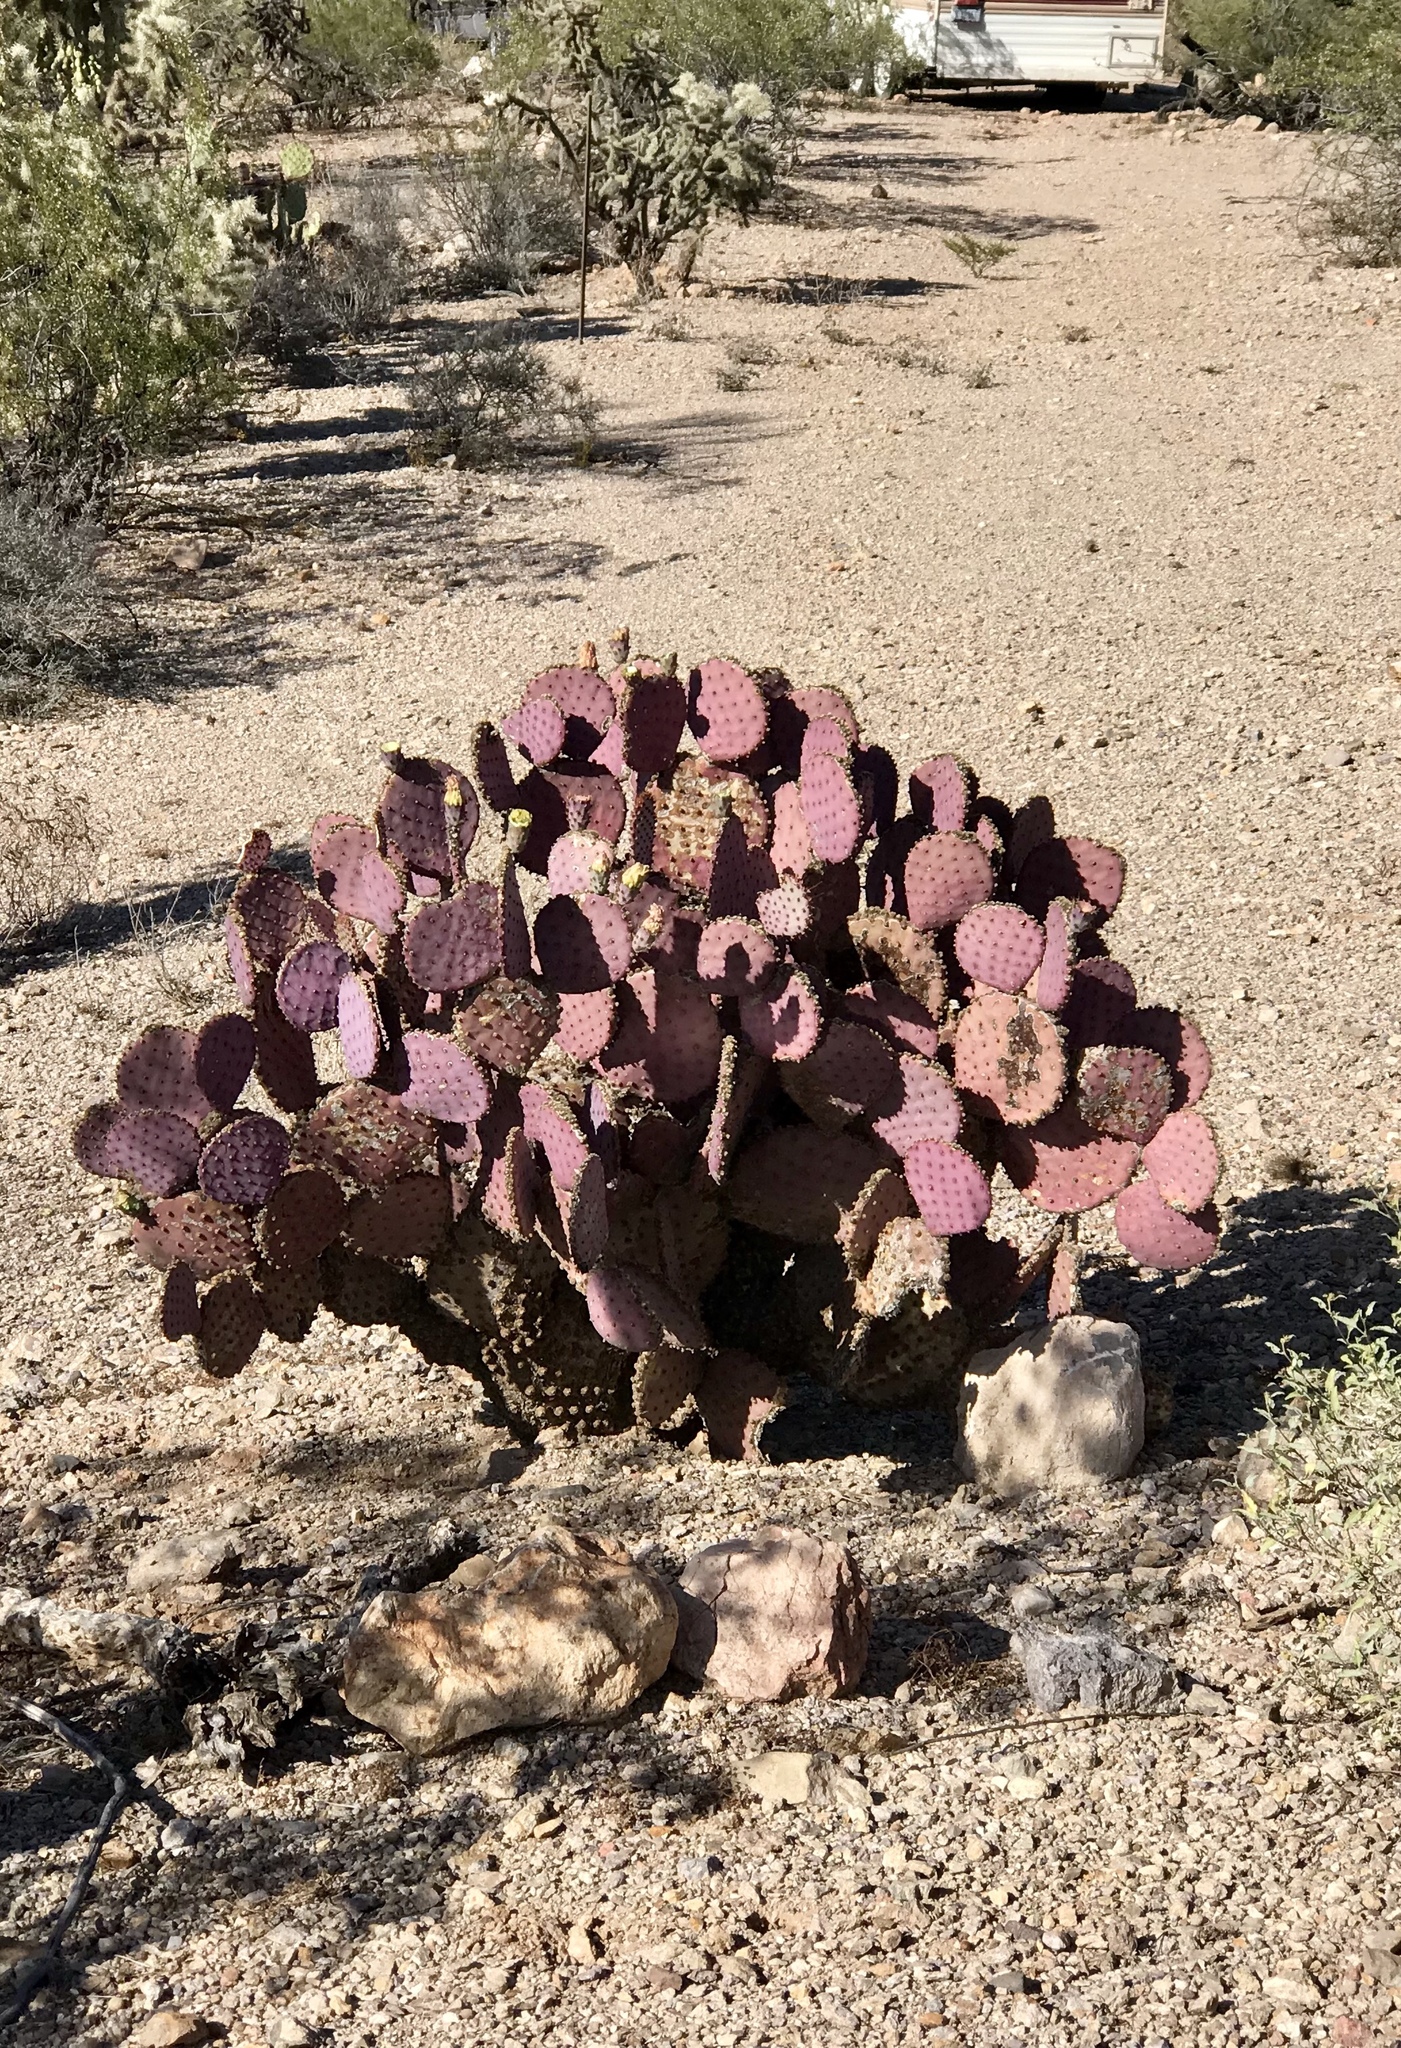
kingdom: Plantae
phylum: Tracheophyta
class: Magnoliopsida
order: Caryophyllales
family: Cactaceae
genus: Opuntia
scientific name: Opuntia gosseliniana
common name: Violet prickly-pear
